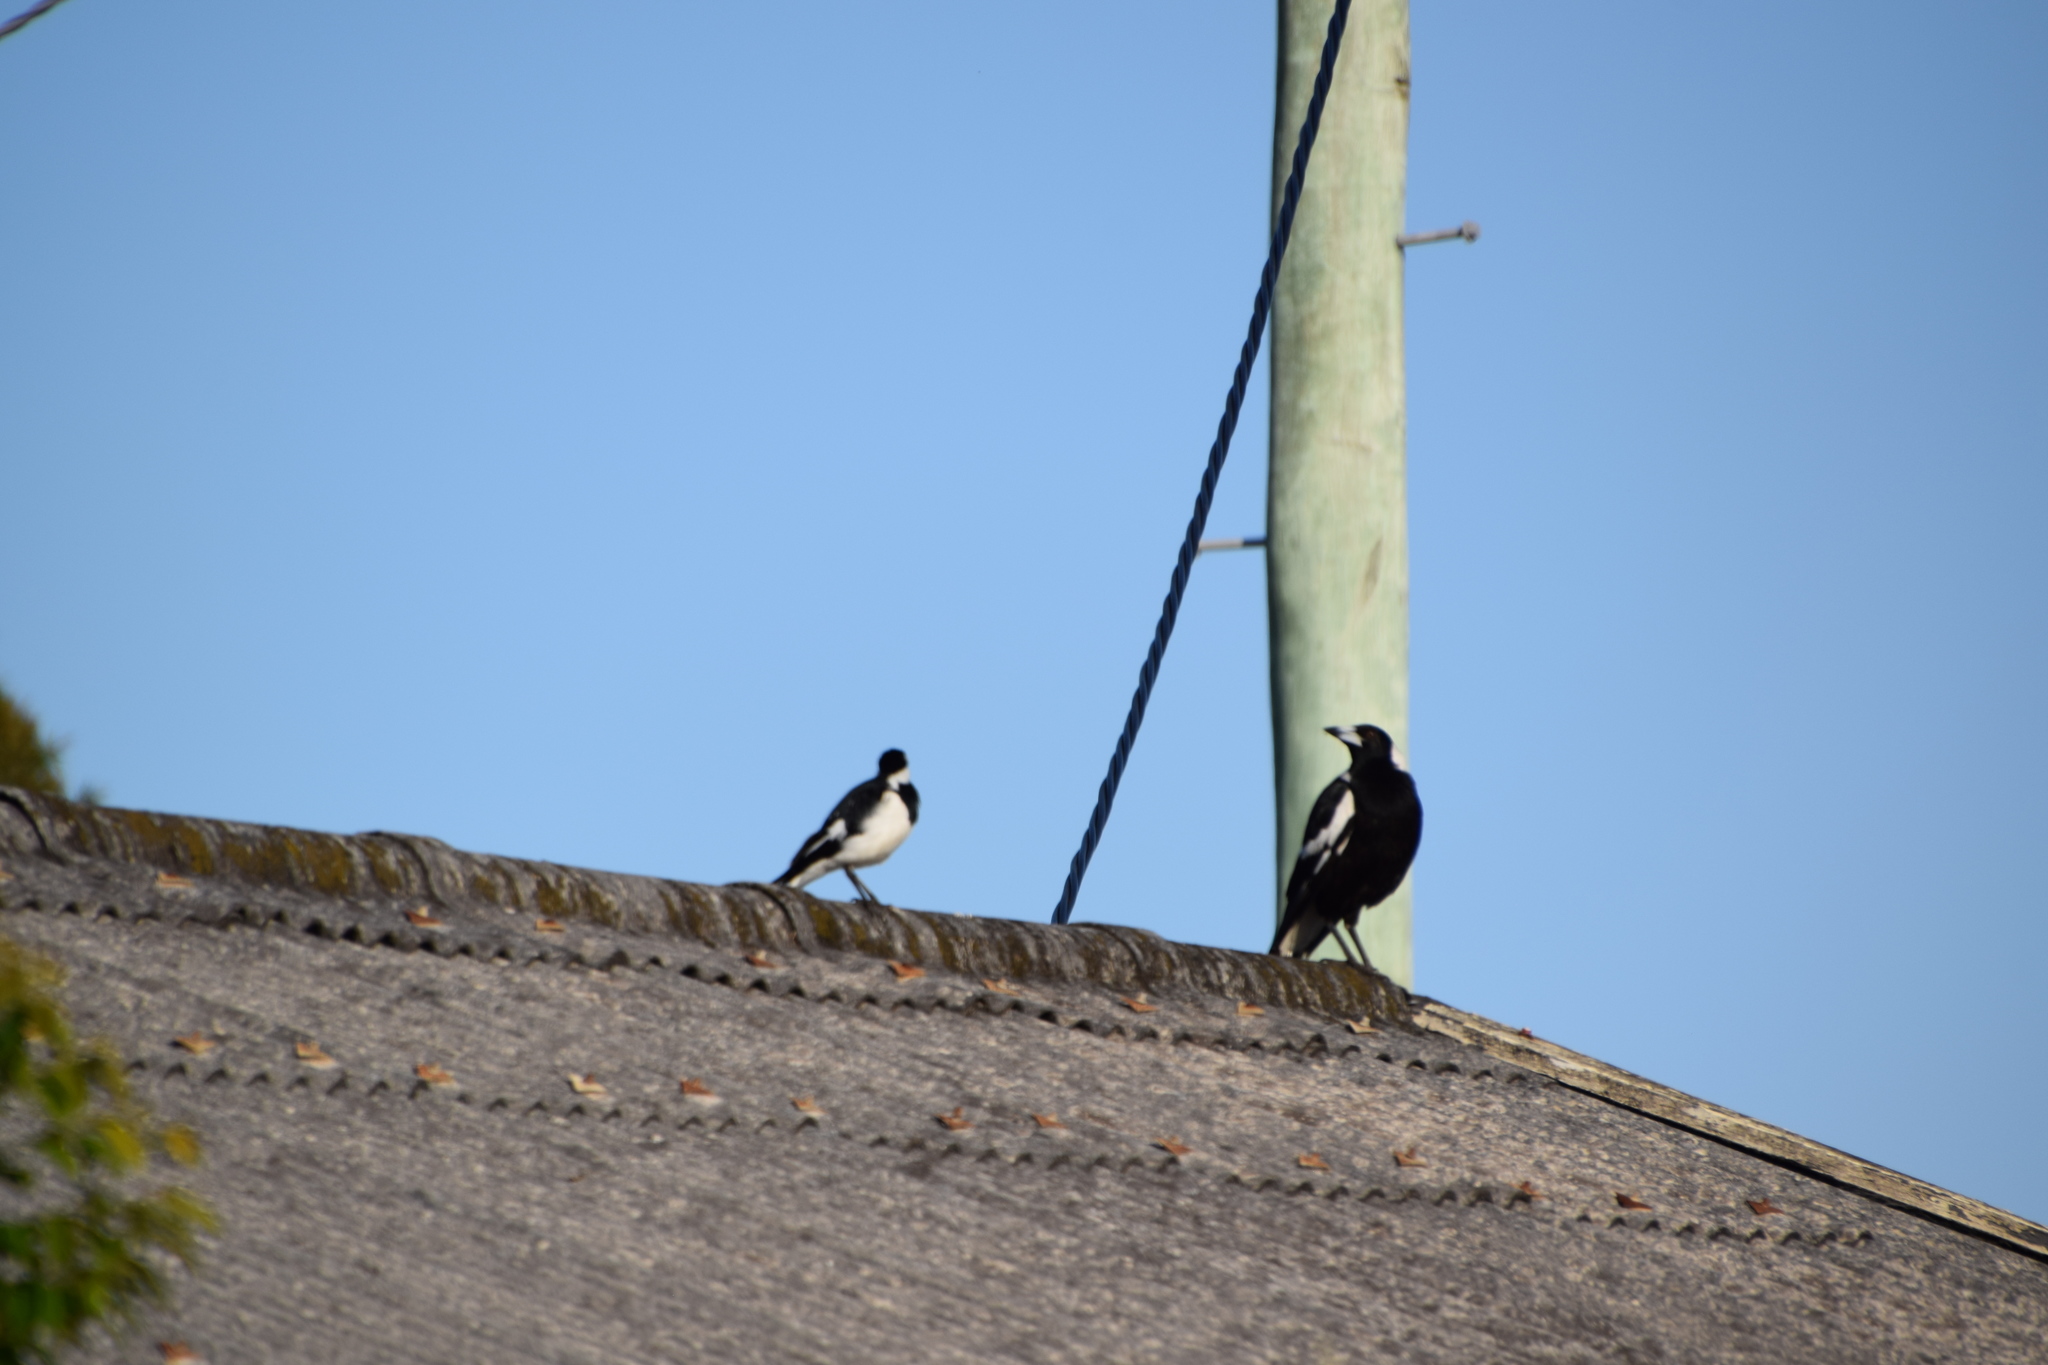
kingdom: Animalia
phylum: Chordata
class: Aves
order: Passeriformes
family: Cracticidae
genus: Gymnorhina
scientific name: Gymnorhina tibicen
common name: Australian magpie
